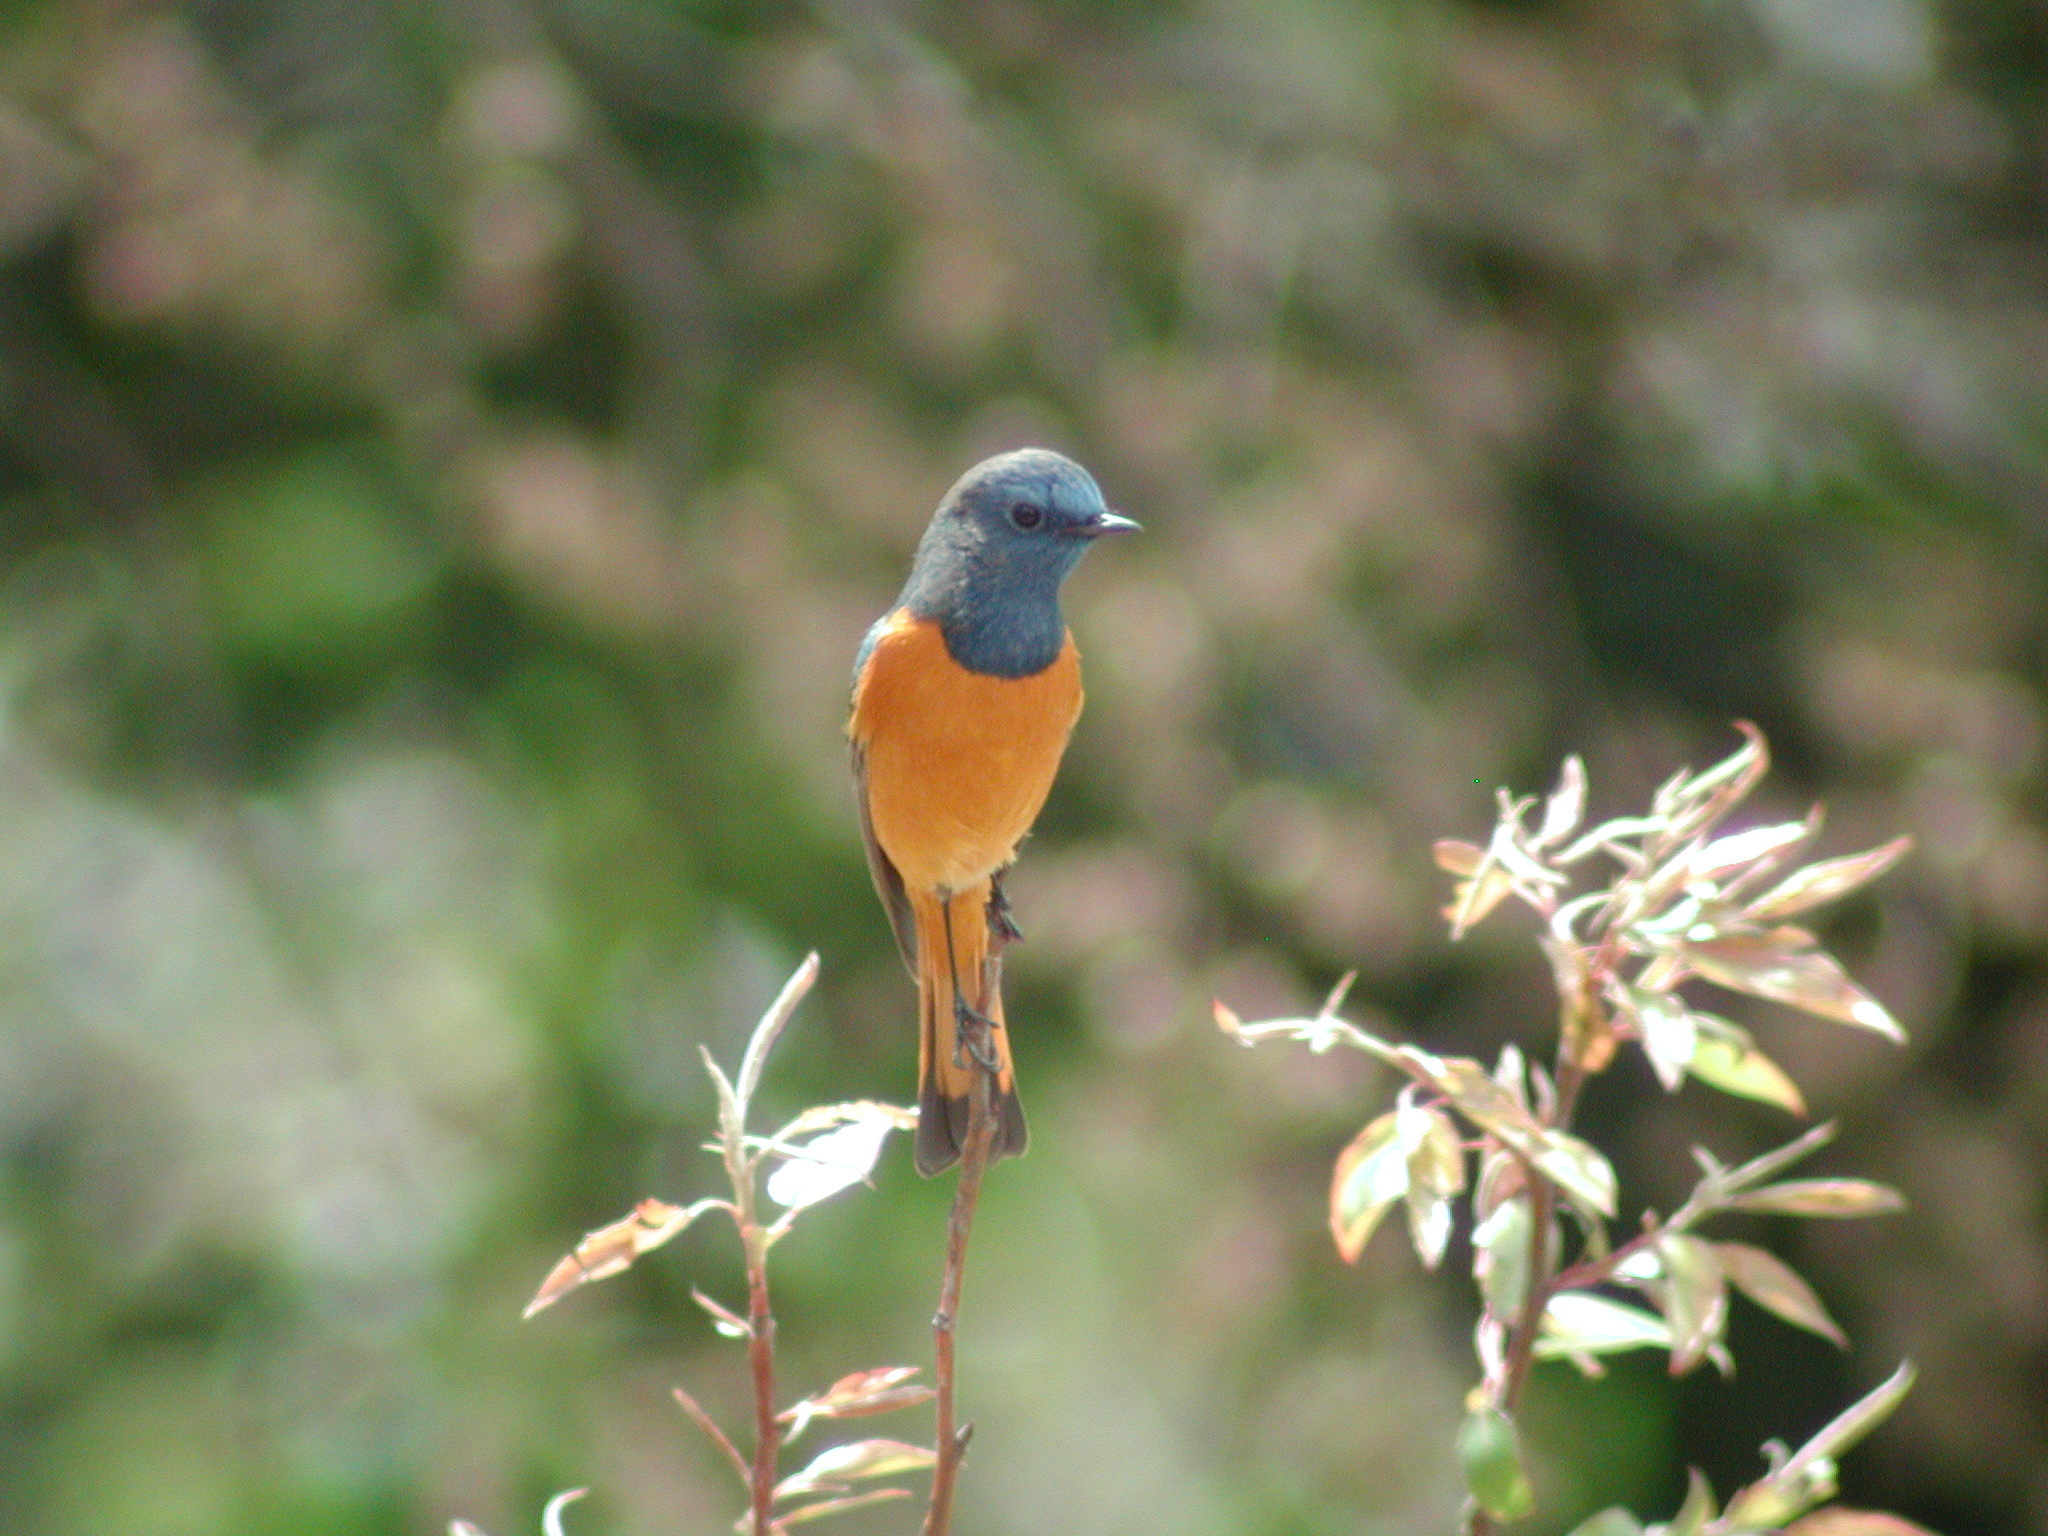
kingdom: Animalia
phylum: Chordata
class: Aves
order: Passeriformes
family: Muscicapidae
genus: Phoenicurus
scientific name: Phoenicurus frontalis
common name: Blue-fronted redstart
